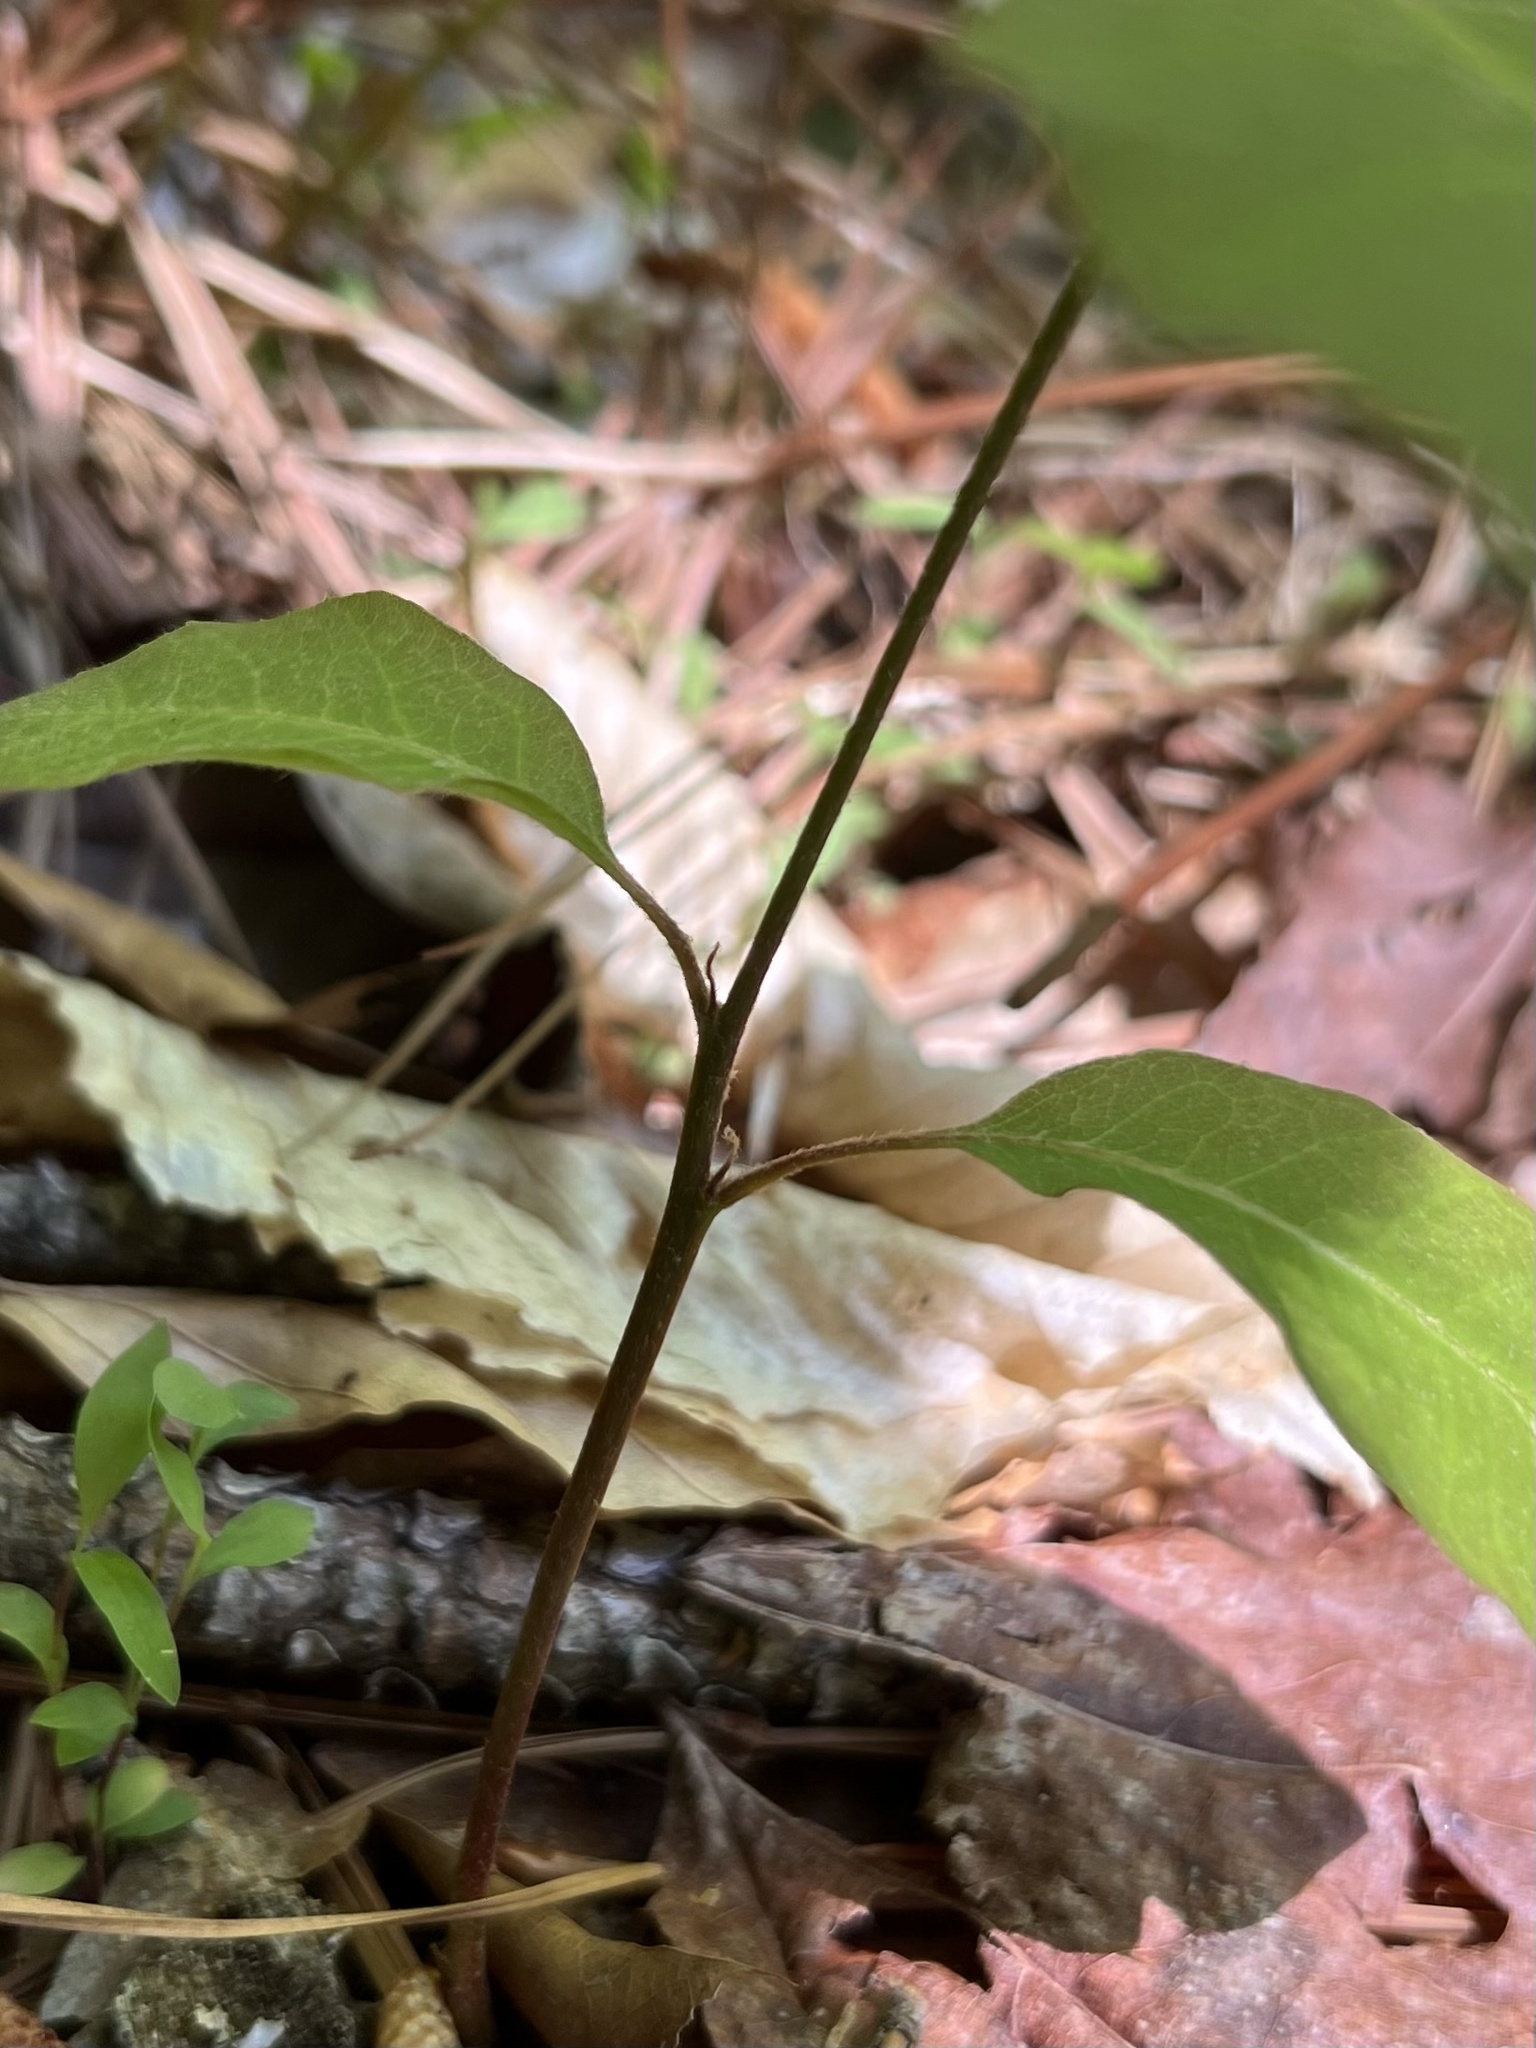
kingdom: Plantae
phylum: Tracheophyta
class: Magnoliopsida
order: Fagales
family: Fagaceae
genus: Castanea
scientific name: Castanea pumila
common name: Chinkapin
